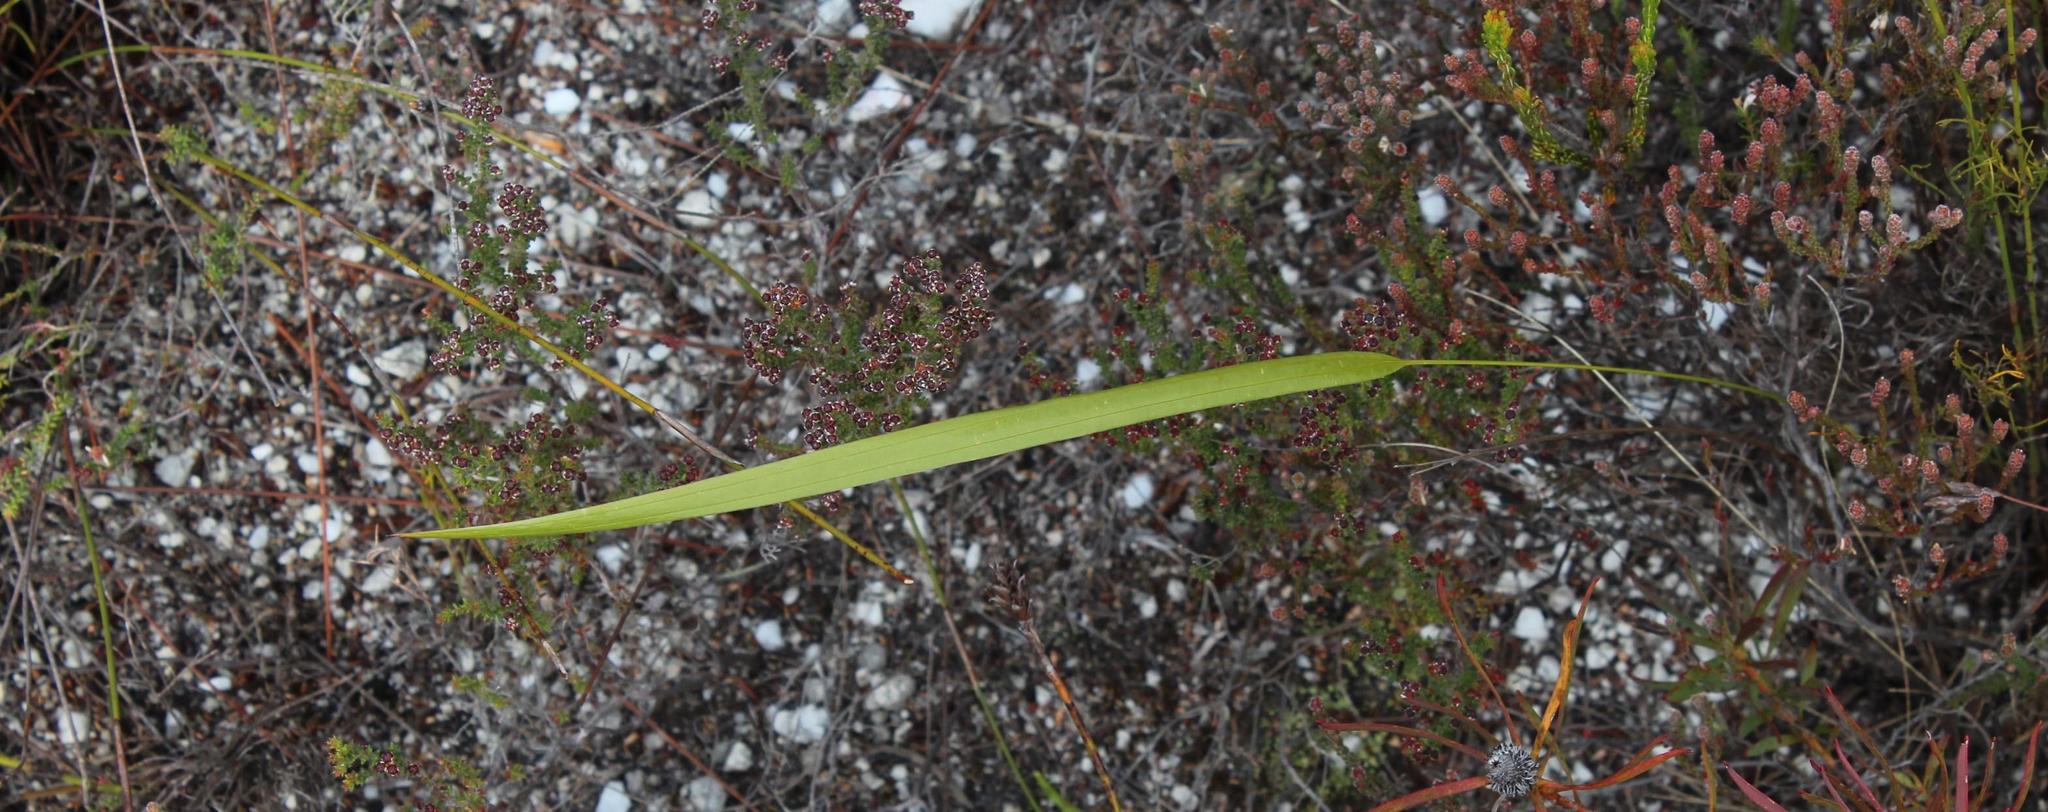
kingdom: Plantae
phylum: Tracheophyta
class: Liliopsida
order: Asparagales
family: Iridaceae
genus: Tritoniopsis
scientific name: Tritoniopsis triticea
